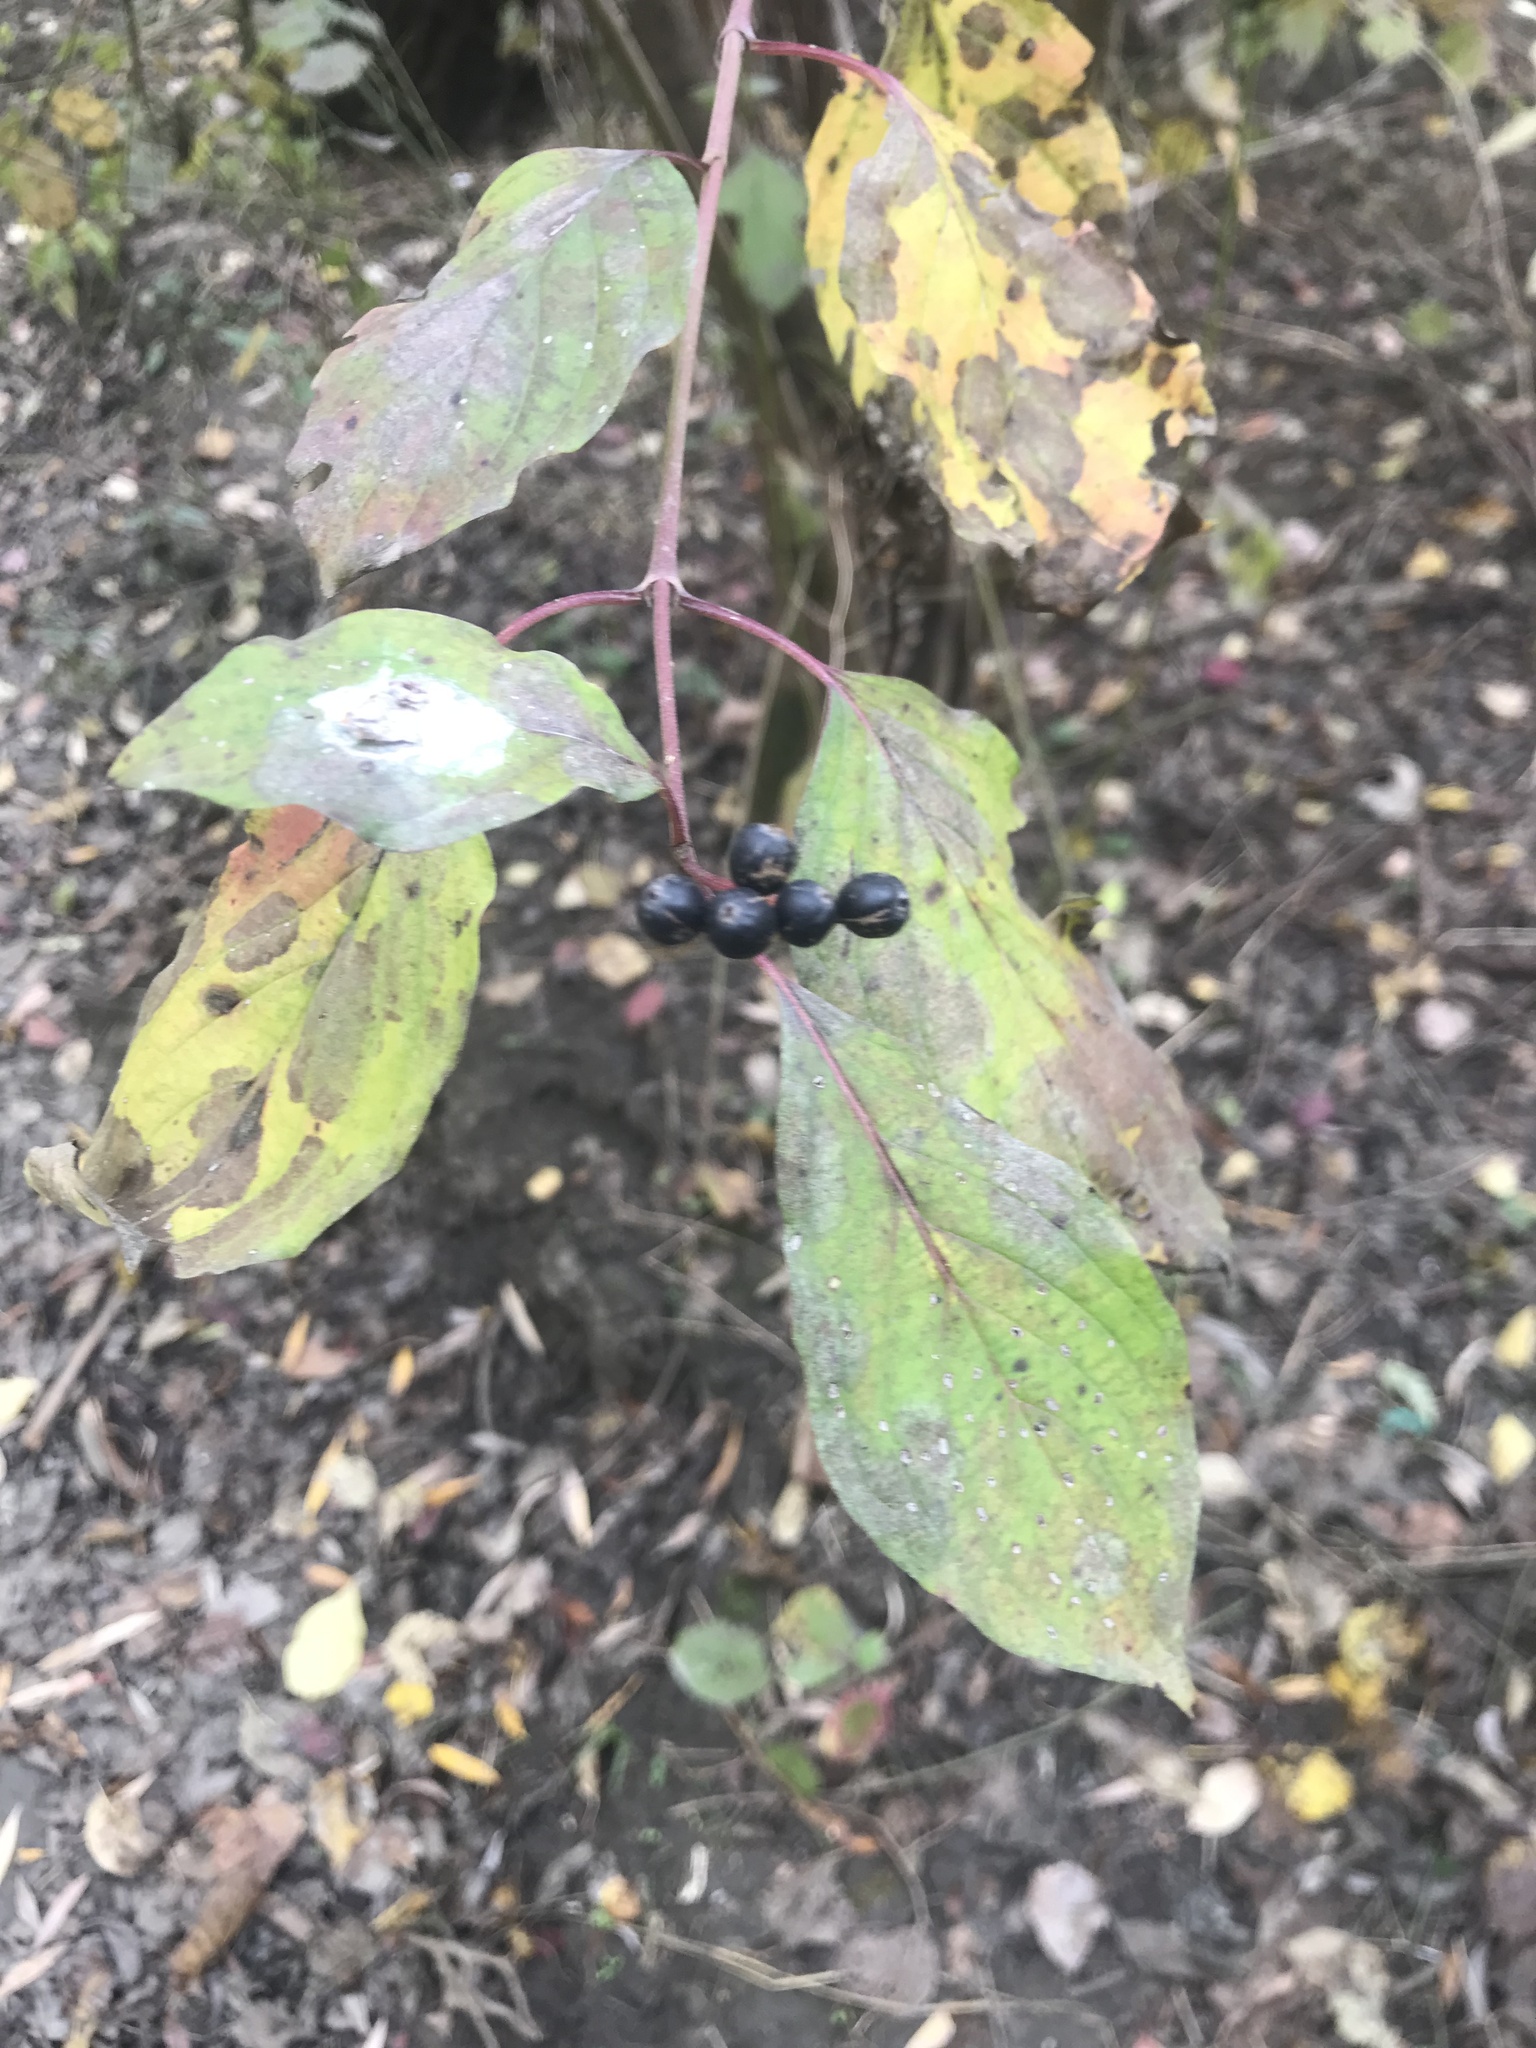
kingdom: Plantae
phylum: Tracheophyta
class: Magnoliopsida
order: Cornales
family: Cornaceae
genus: Cornus
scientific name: Cornus sanguinea
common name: Dogwood
